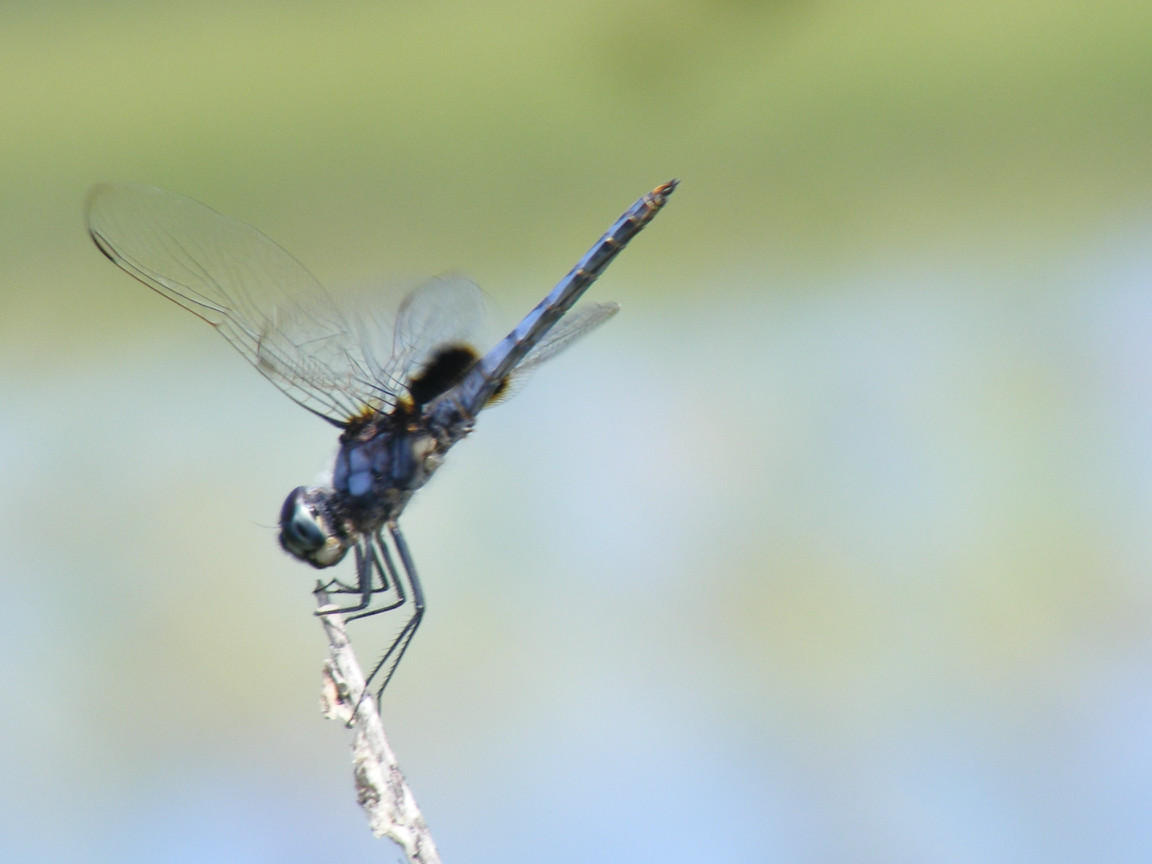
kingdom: Animalia
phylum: Arthropoda
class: Insecta
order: Odonata
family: Libellulidae
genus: Urothemis
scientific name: Urothemis edwardsii
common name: Blue basker
